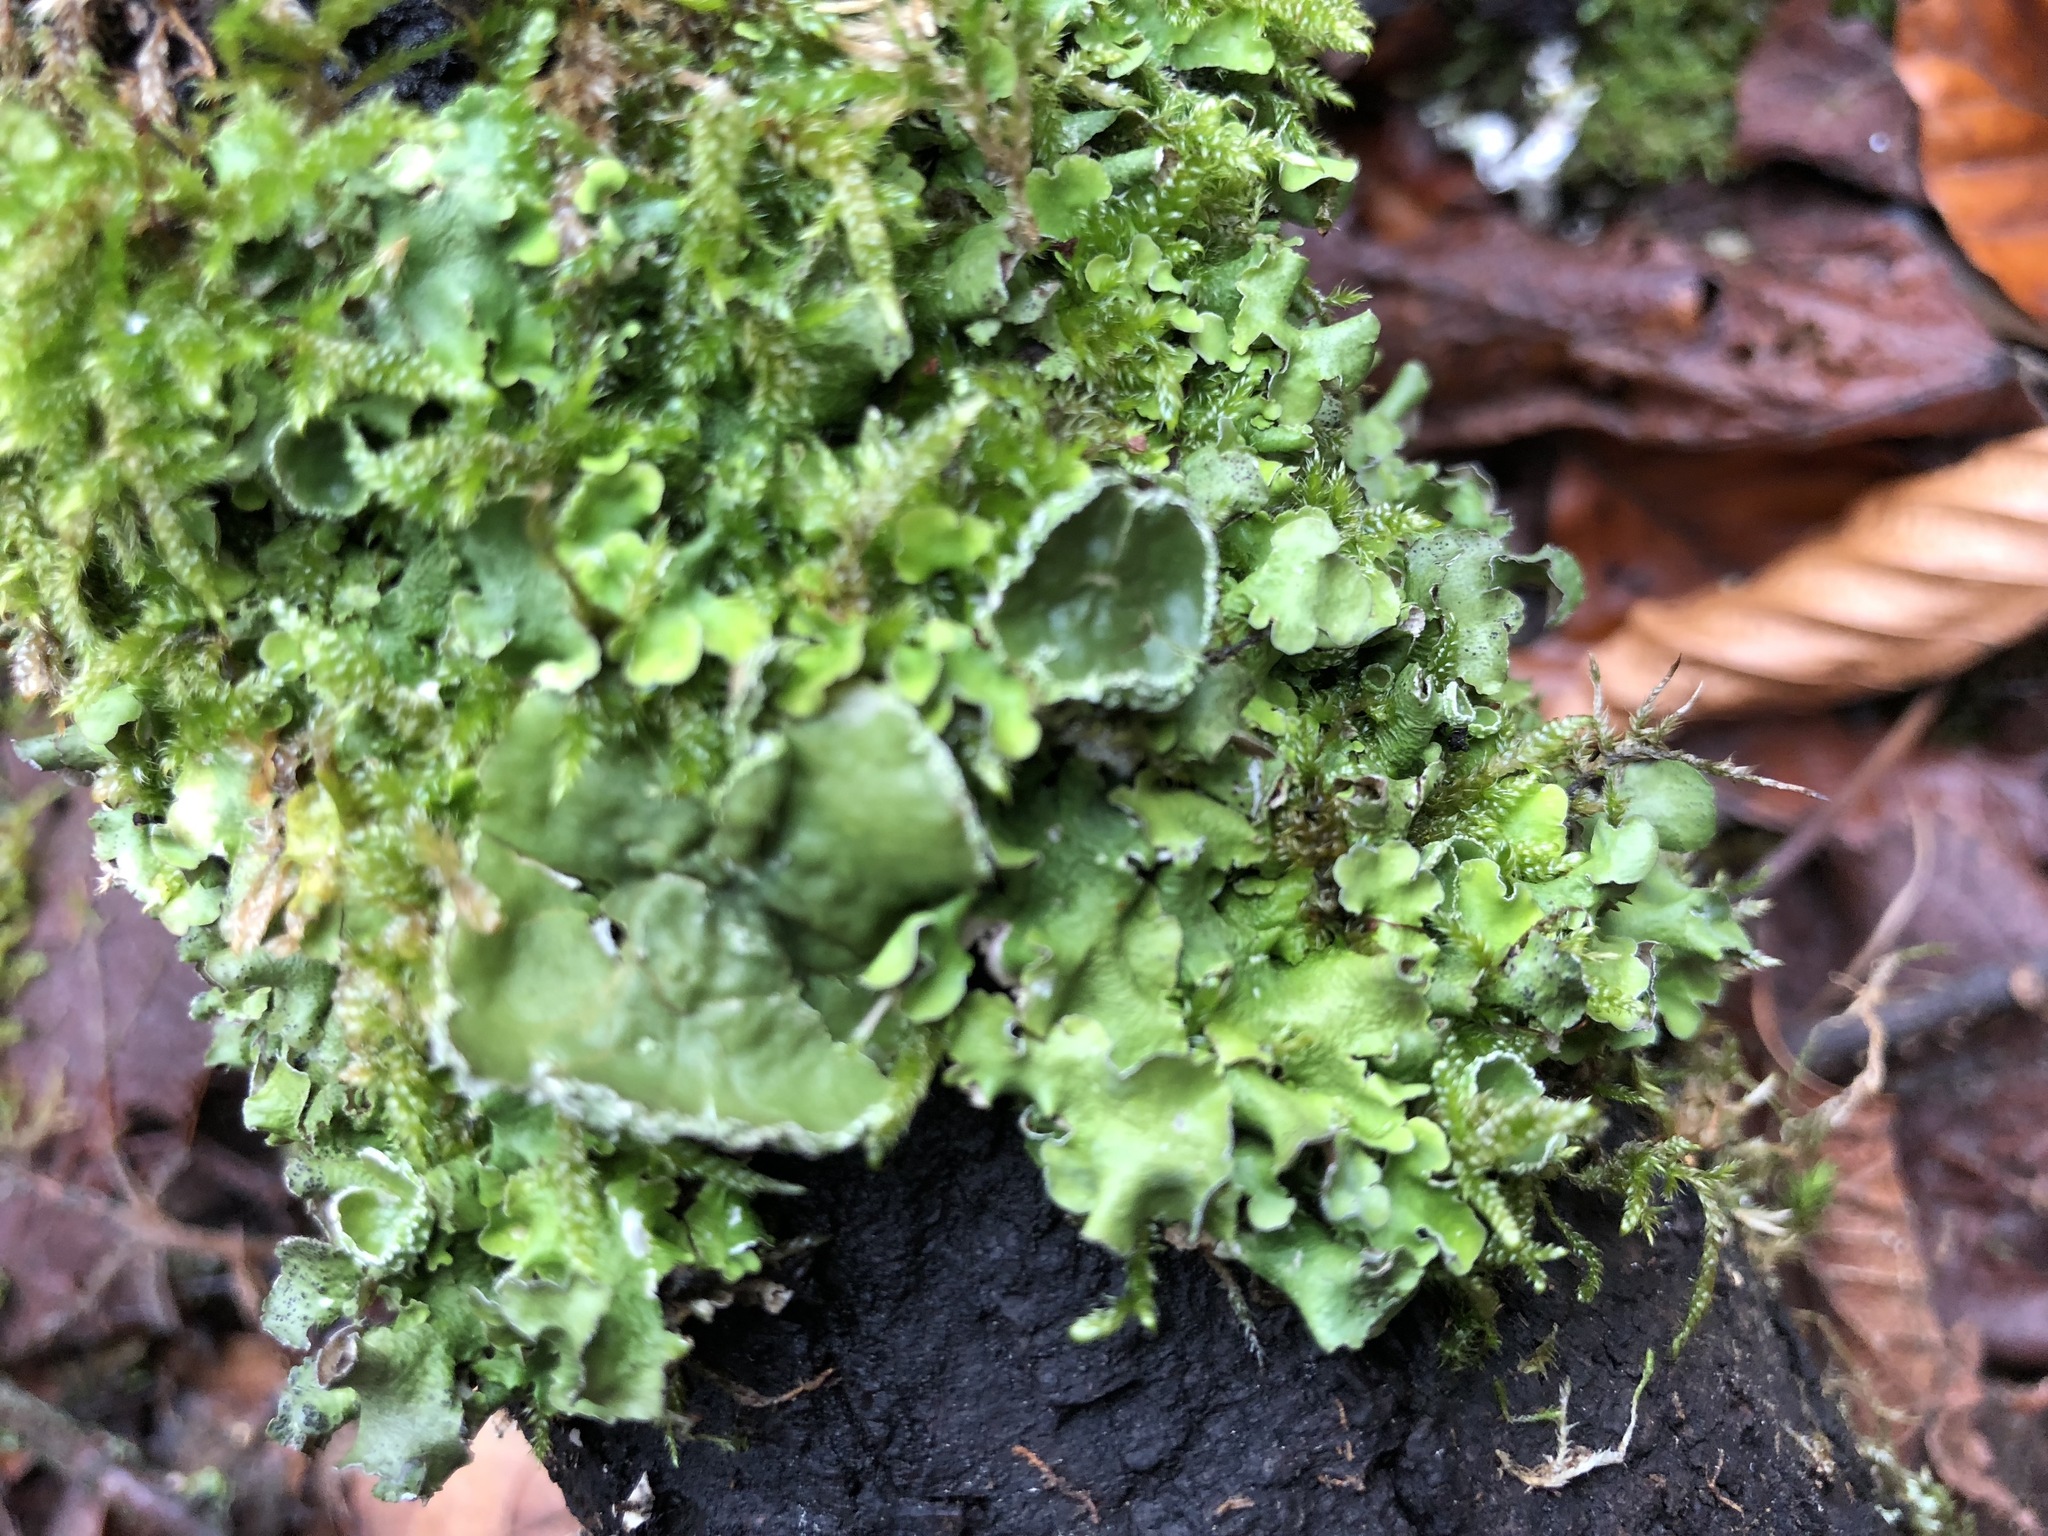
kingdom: Fungi
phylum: Ascomycota
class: Lecanoromycetes
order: Lecanorales
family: Parmeliaceae
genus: Pleurosticta
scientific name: Pleurosticta acetabulum
